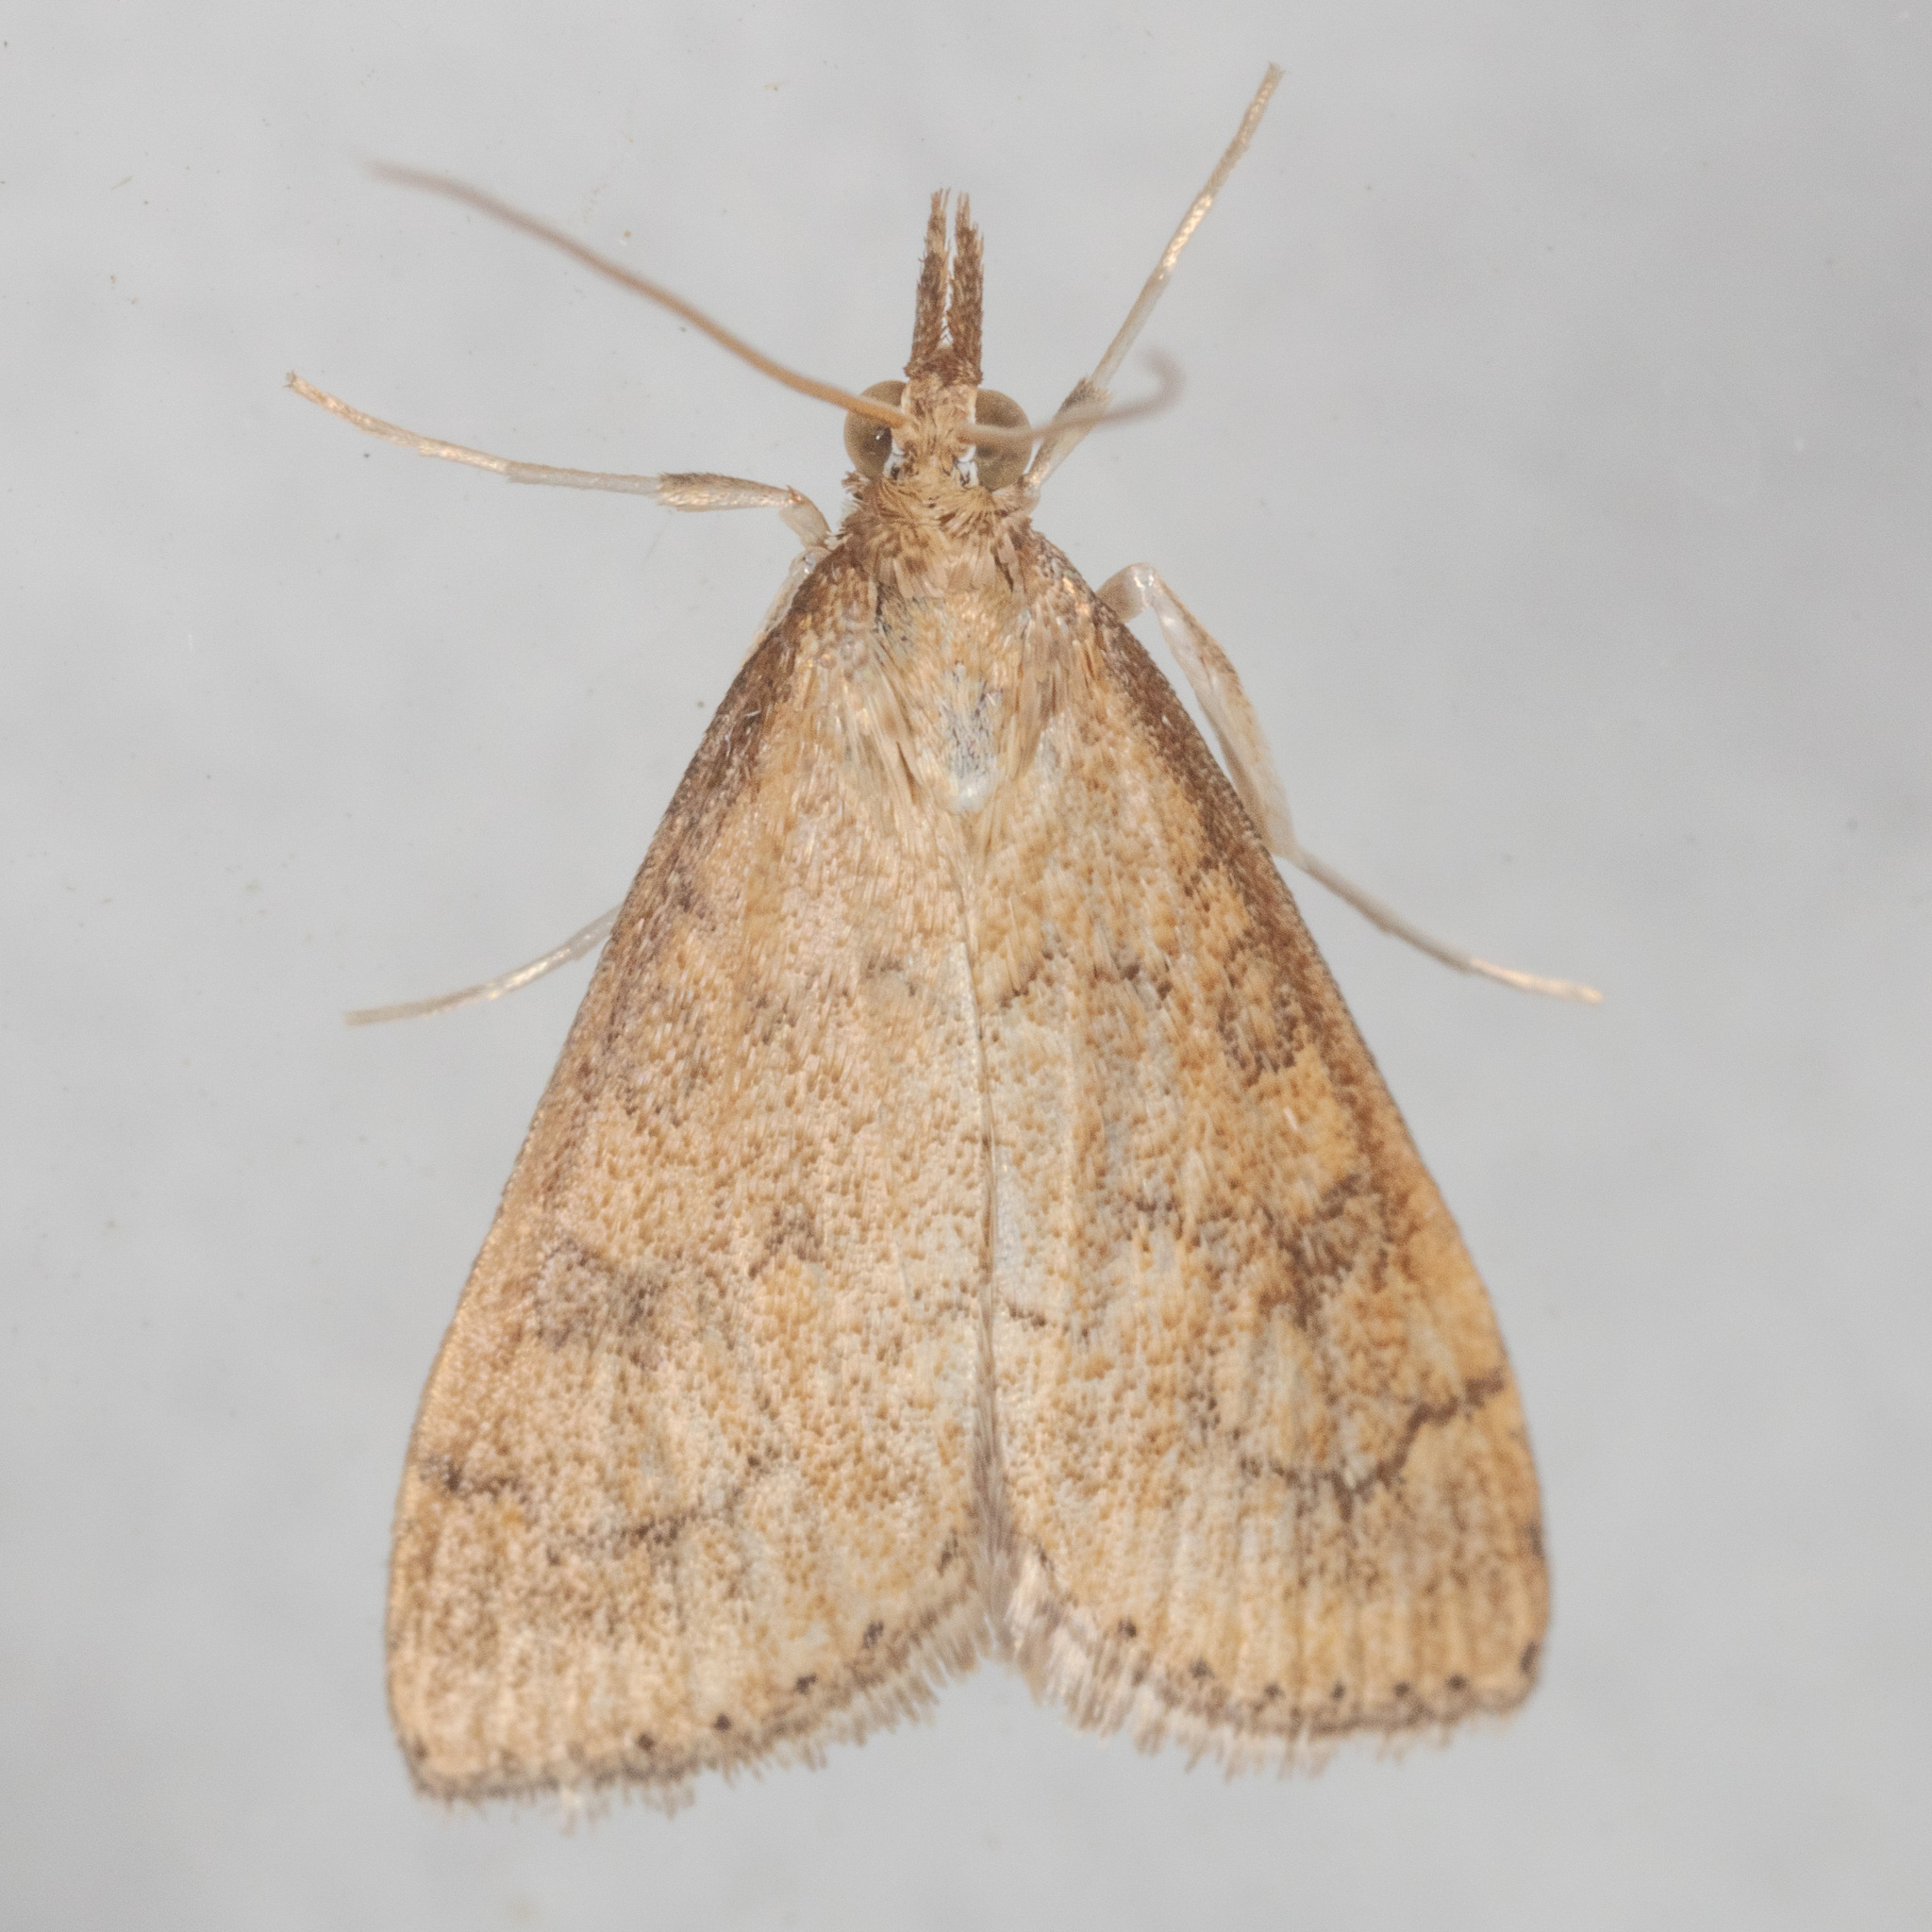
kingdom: Animalia
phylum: Arthropoda
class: Insecta
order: Lepidoptera
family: Crambidae
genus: Udea
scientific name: Udea rubigalis
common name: Celery leaftier moth
